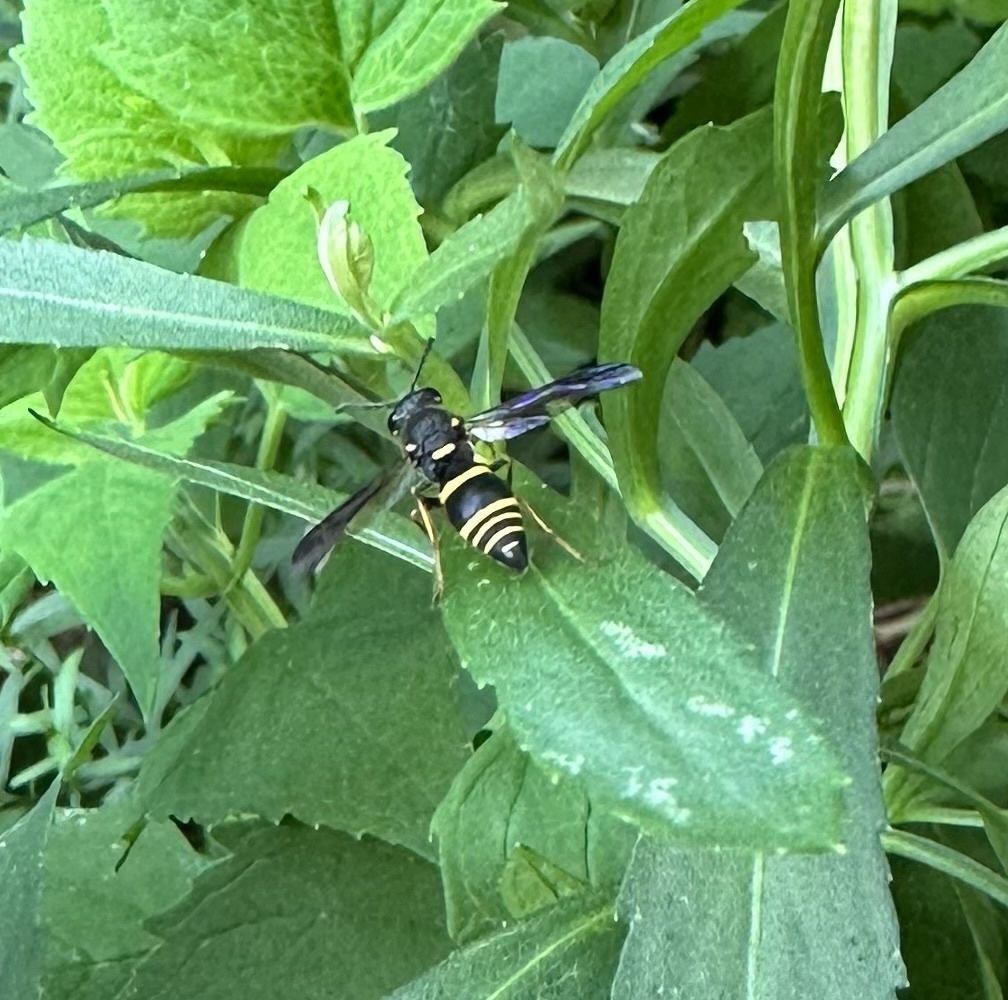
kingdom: Animalia
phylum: Arthropoda
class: Insecta
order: Hymenoptera
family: Eumenidae
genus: Euodynerus
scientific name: Euodynerus foraminatus
